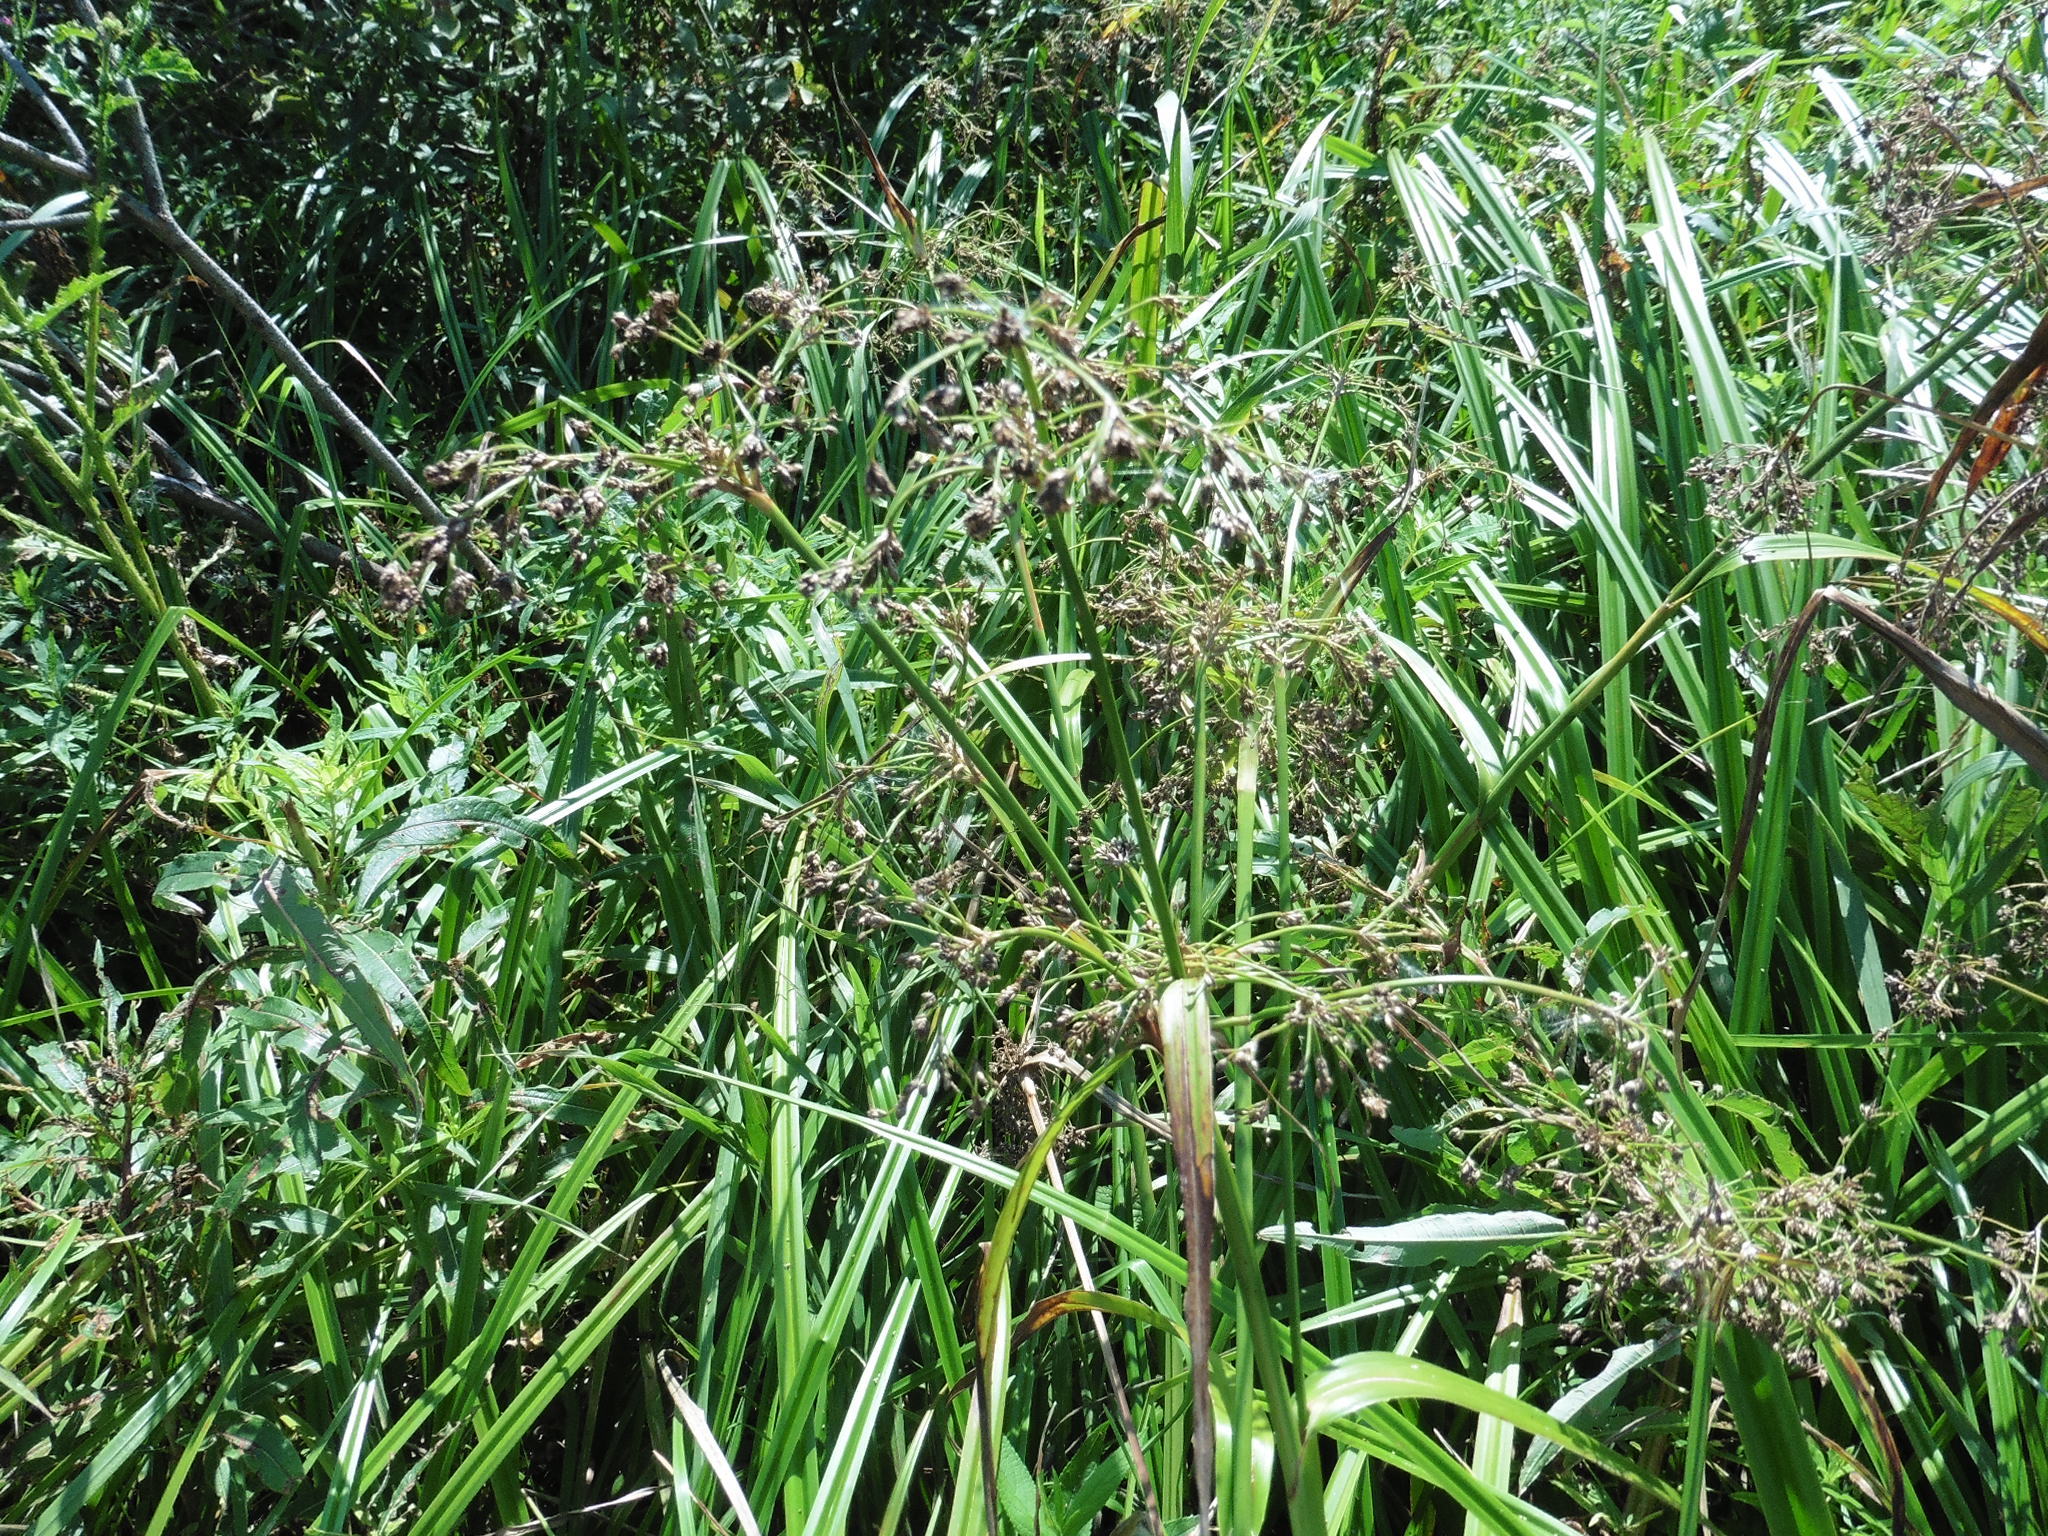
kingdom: Plantae
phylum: Tracheophyta
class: Liliopsida
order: Poales
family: Cyperaceae
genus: Scirpus
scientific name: Scirpus sylvaticus
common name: Wood club-rush
